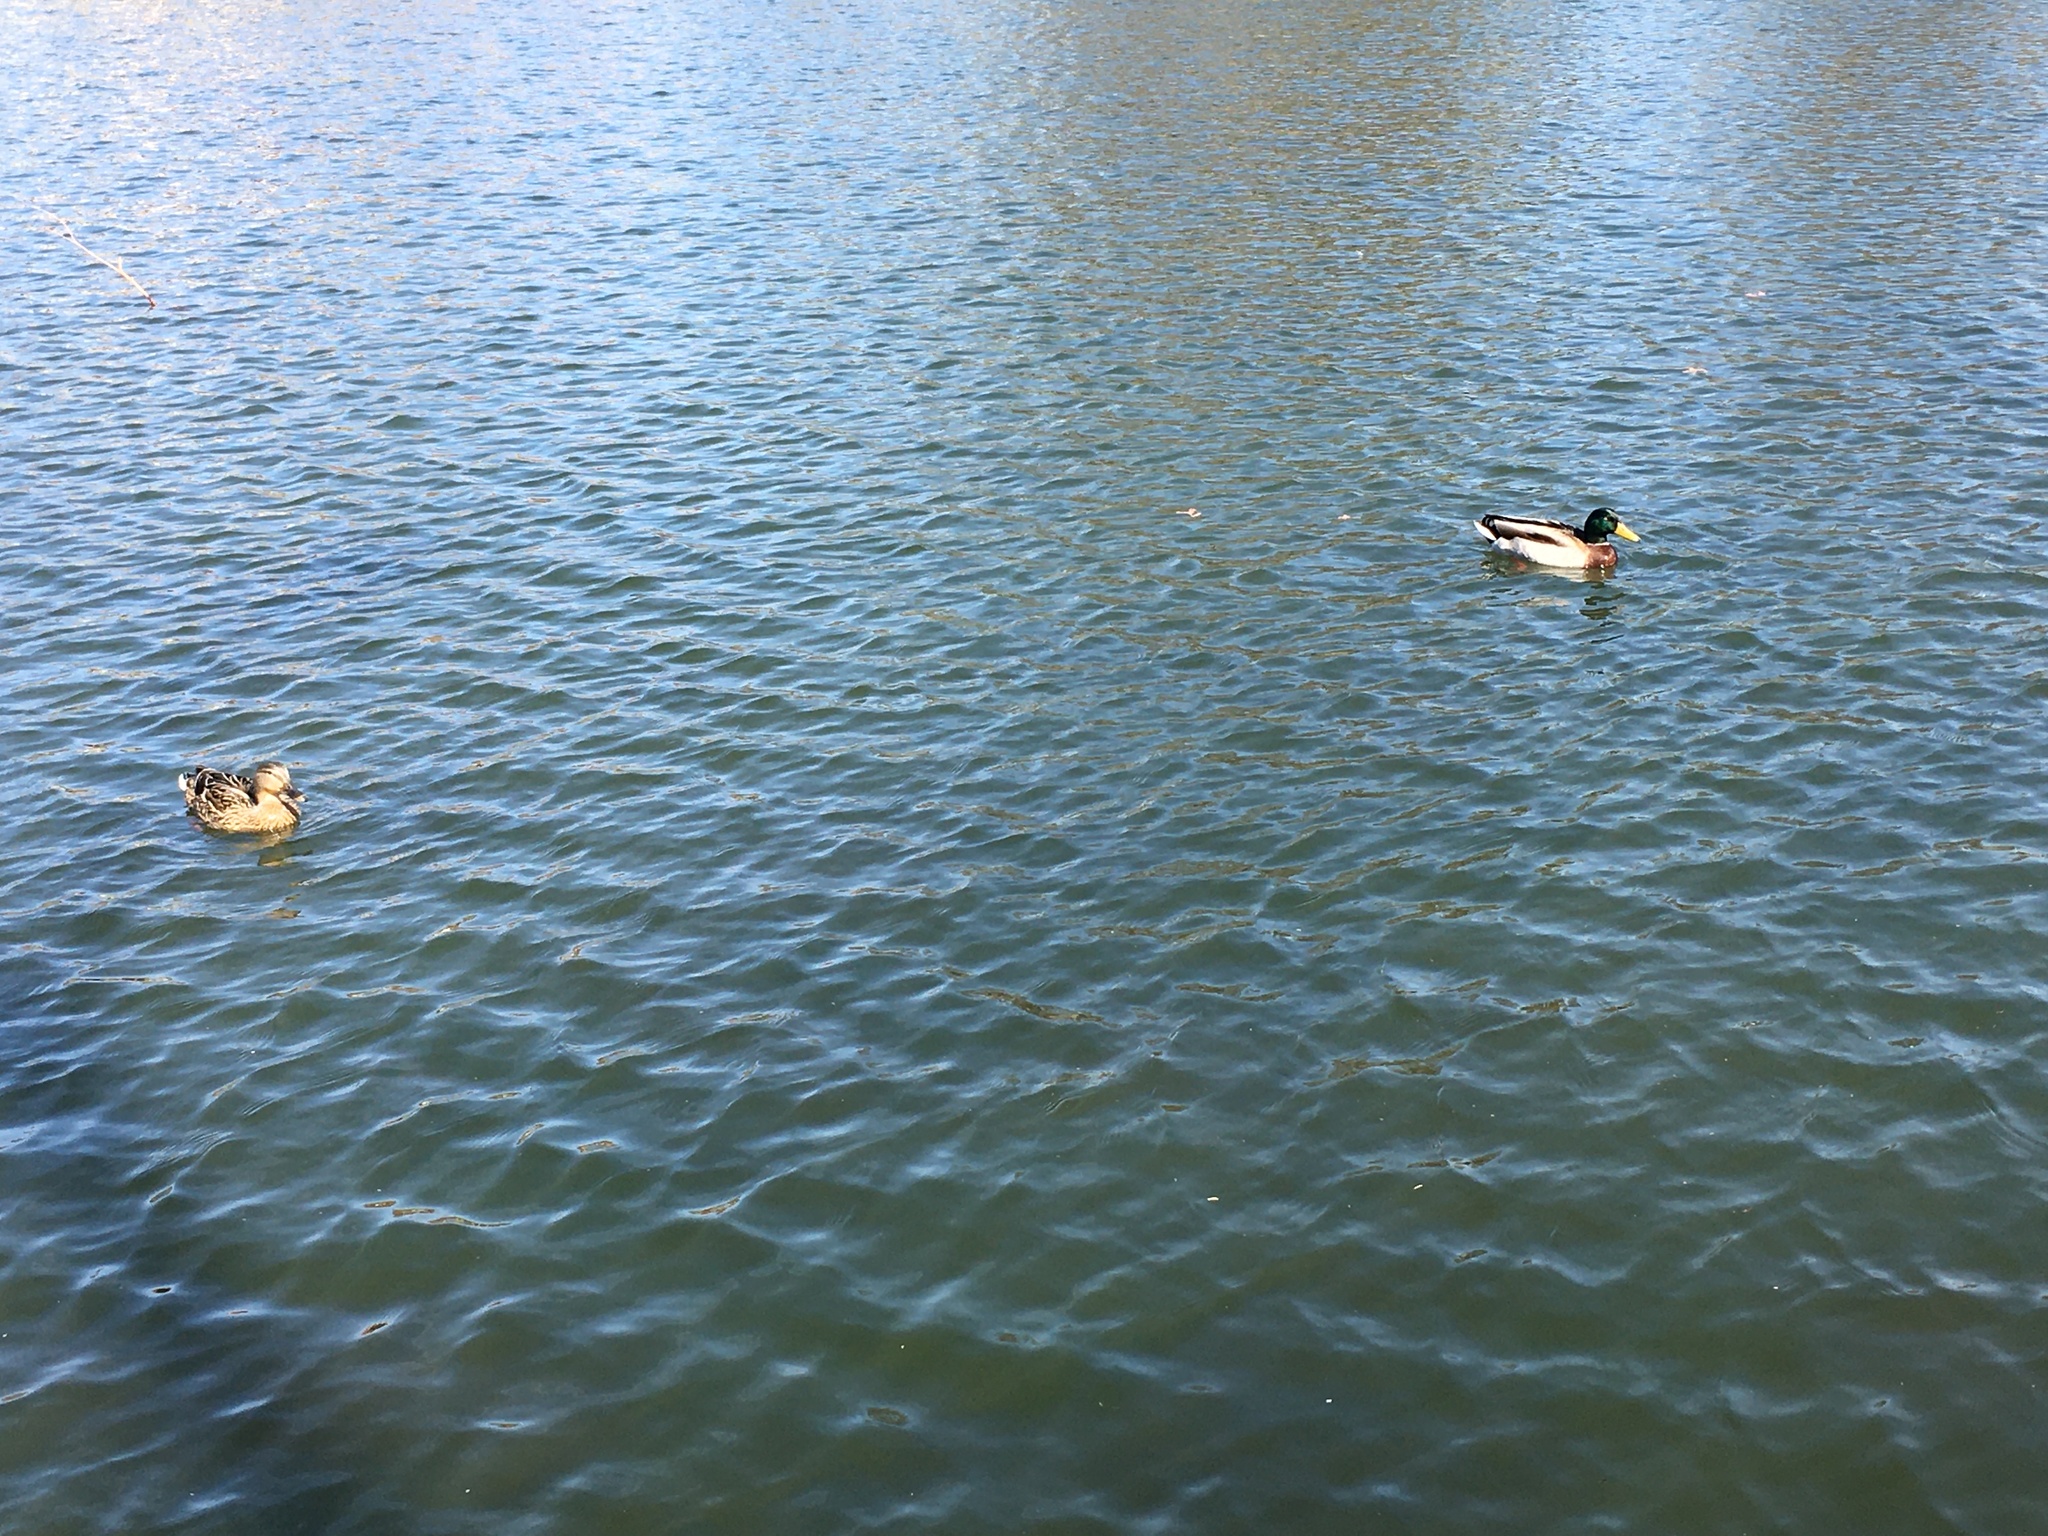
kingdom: Animalia
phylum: Chordata
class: Aves
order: Anseriformes
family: Anatidae
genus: Anas
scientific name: Anas platyrhynchos
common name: Mallard
